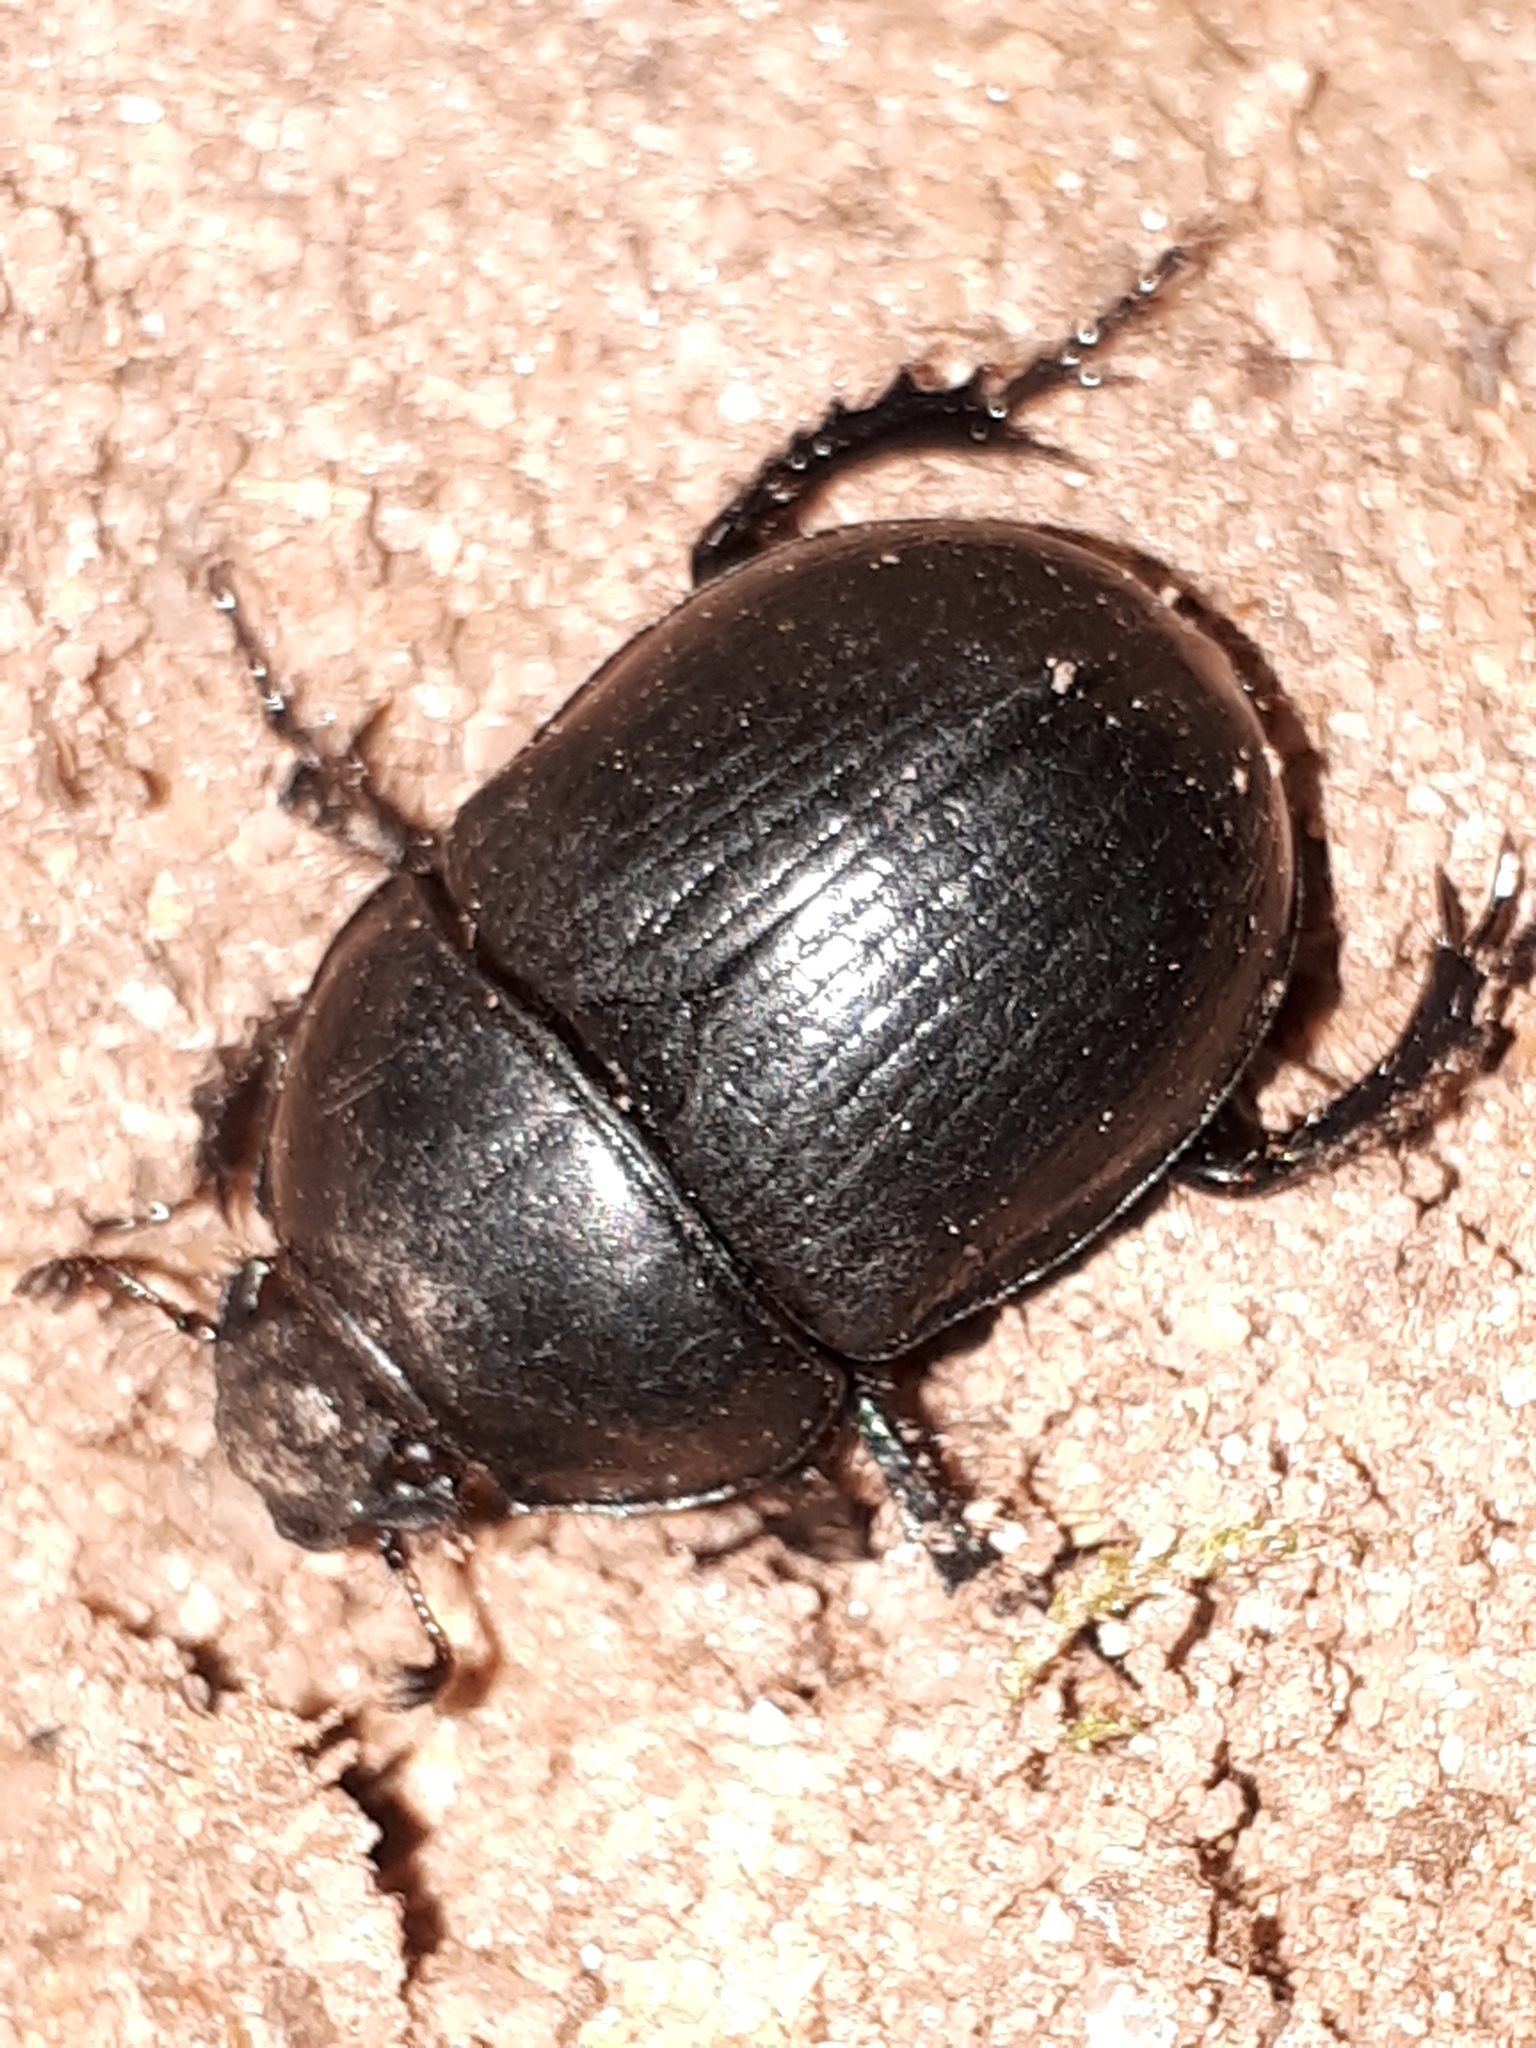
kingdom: Animalia
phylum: Arthropoda
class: Insecta
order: Coleoptera
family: Geotrupidae
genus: Anoplotrupes
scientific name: Anoplotrupes stercorosus
